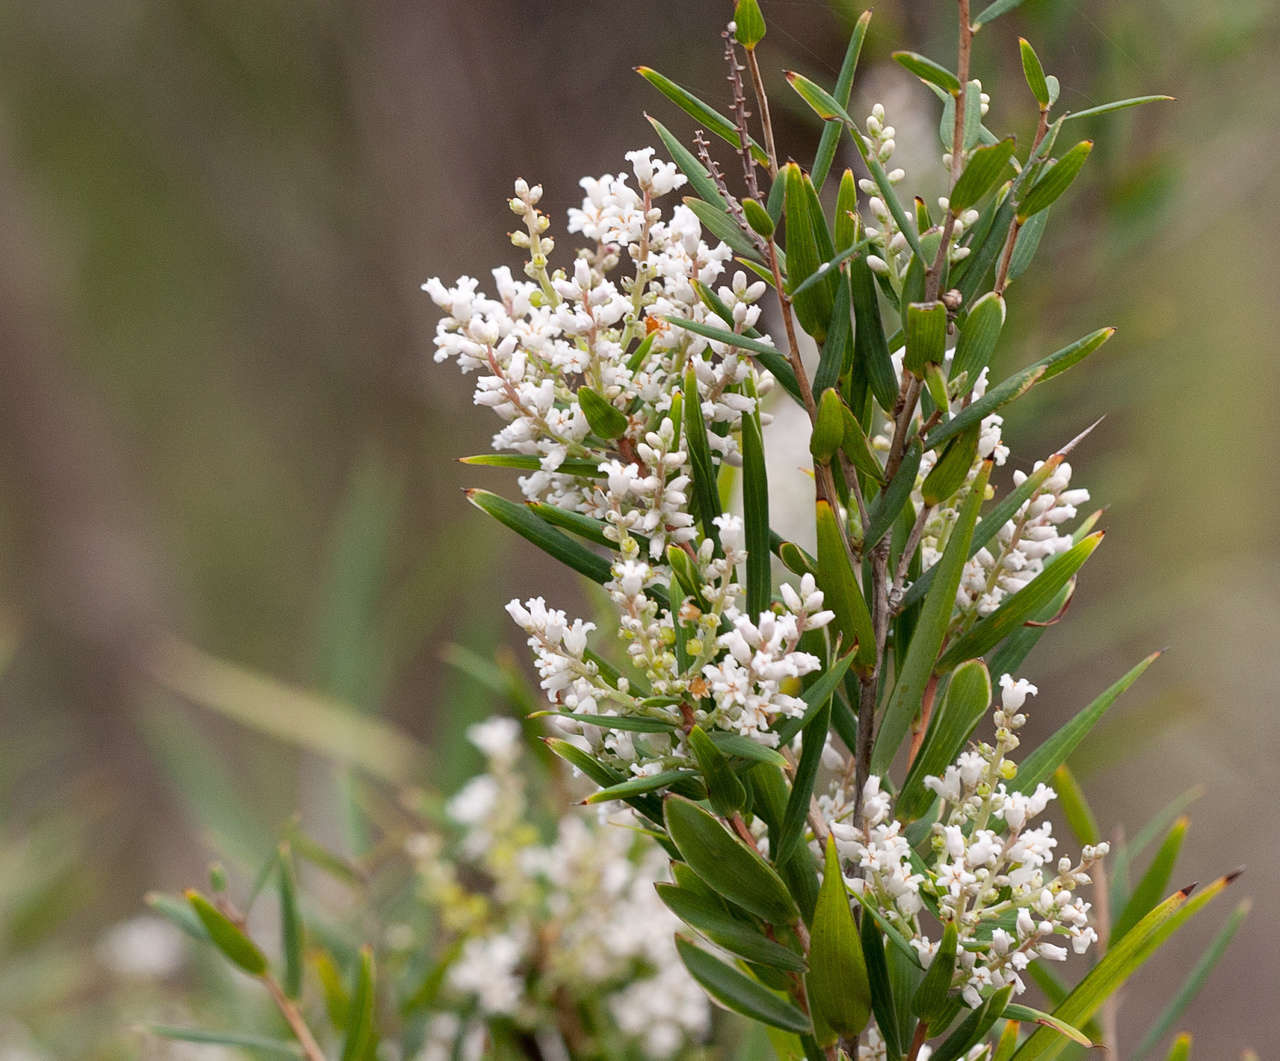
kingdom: Plantae
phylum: Tracheophyta
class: Magnoliopsida
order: Ericales
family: Ericaceae
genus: Leucopogon
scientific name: Leucopogon australis
